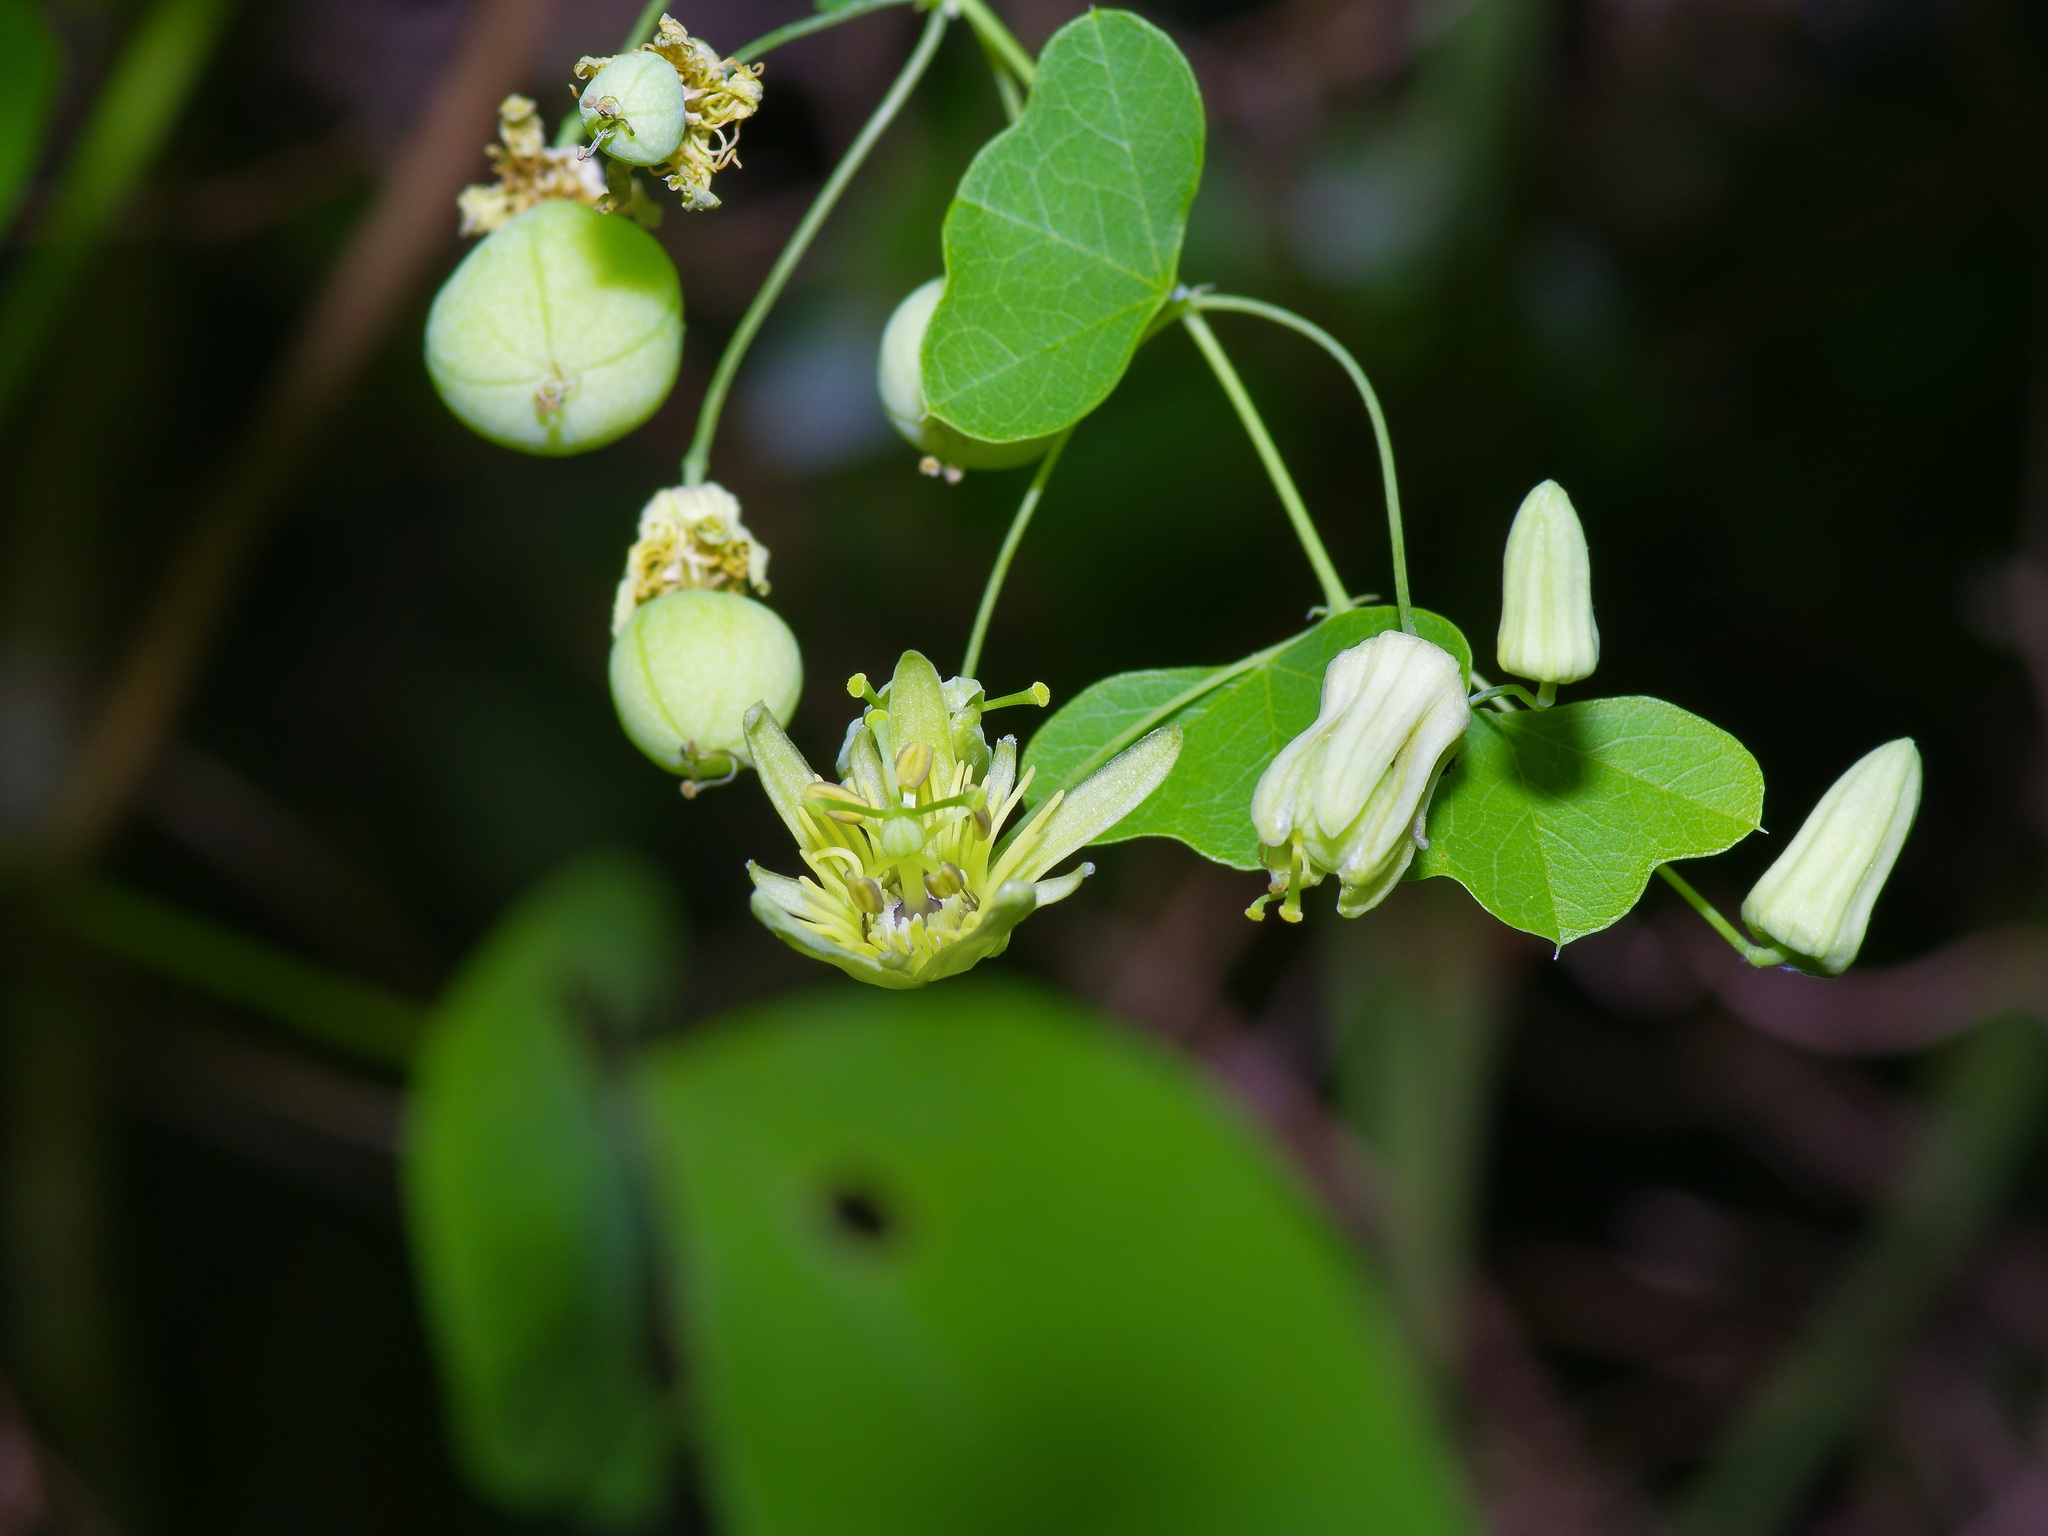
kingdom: Plantae
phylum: Tracheophyta
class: Magnoliopsida
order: Malpighiales
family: Passifloraceae
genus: Passiflora
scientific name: Passiflora lutea
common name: Yellow passionflower
